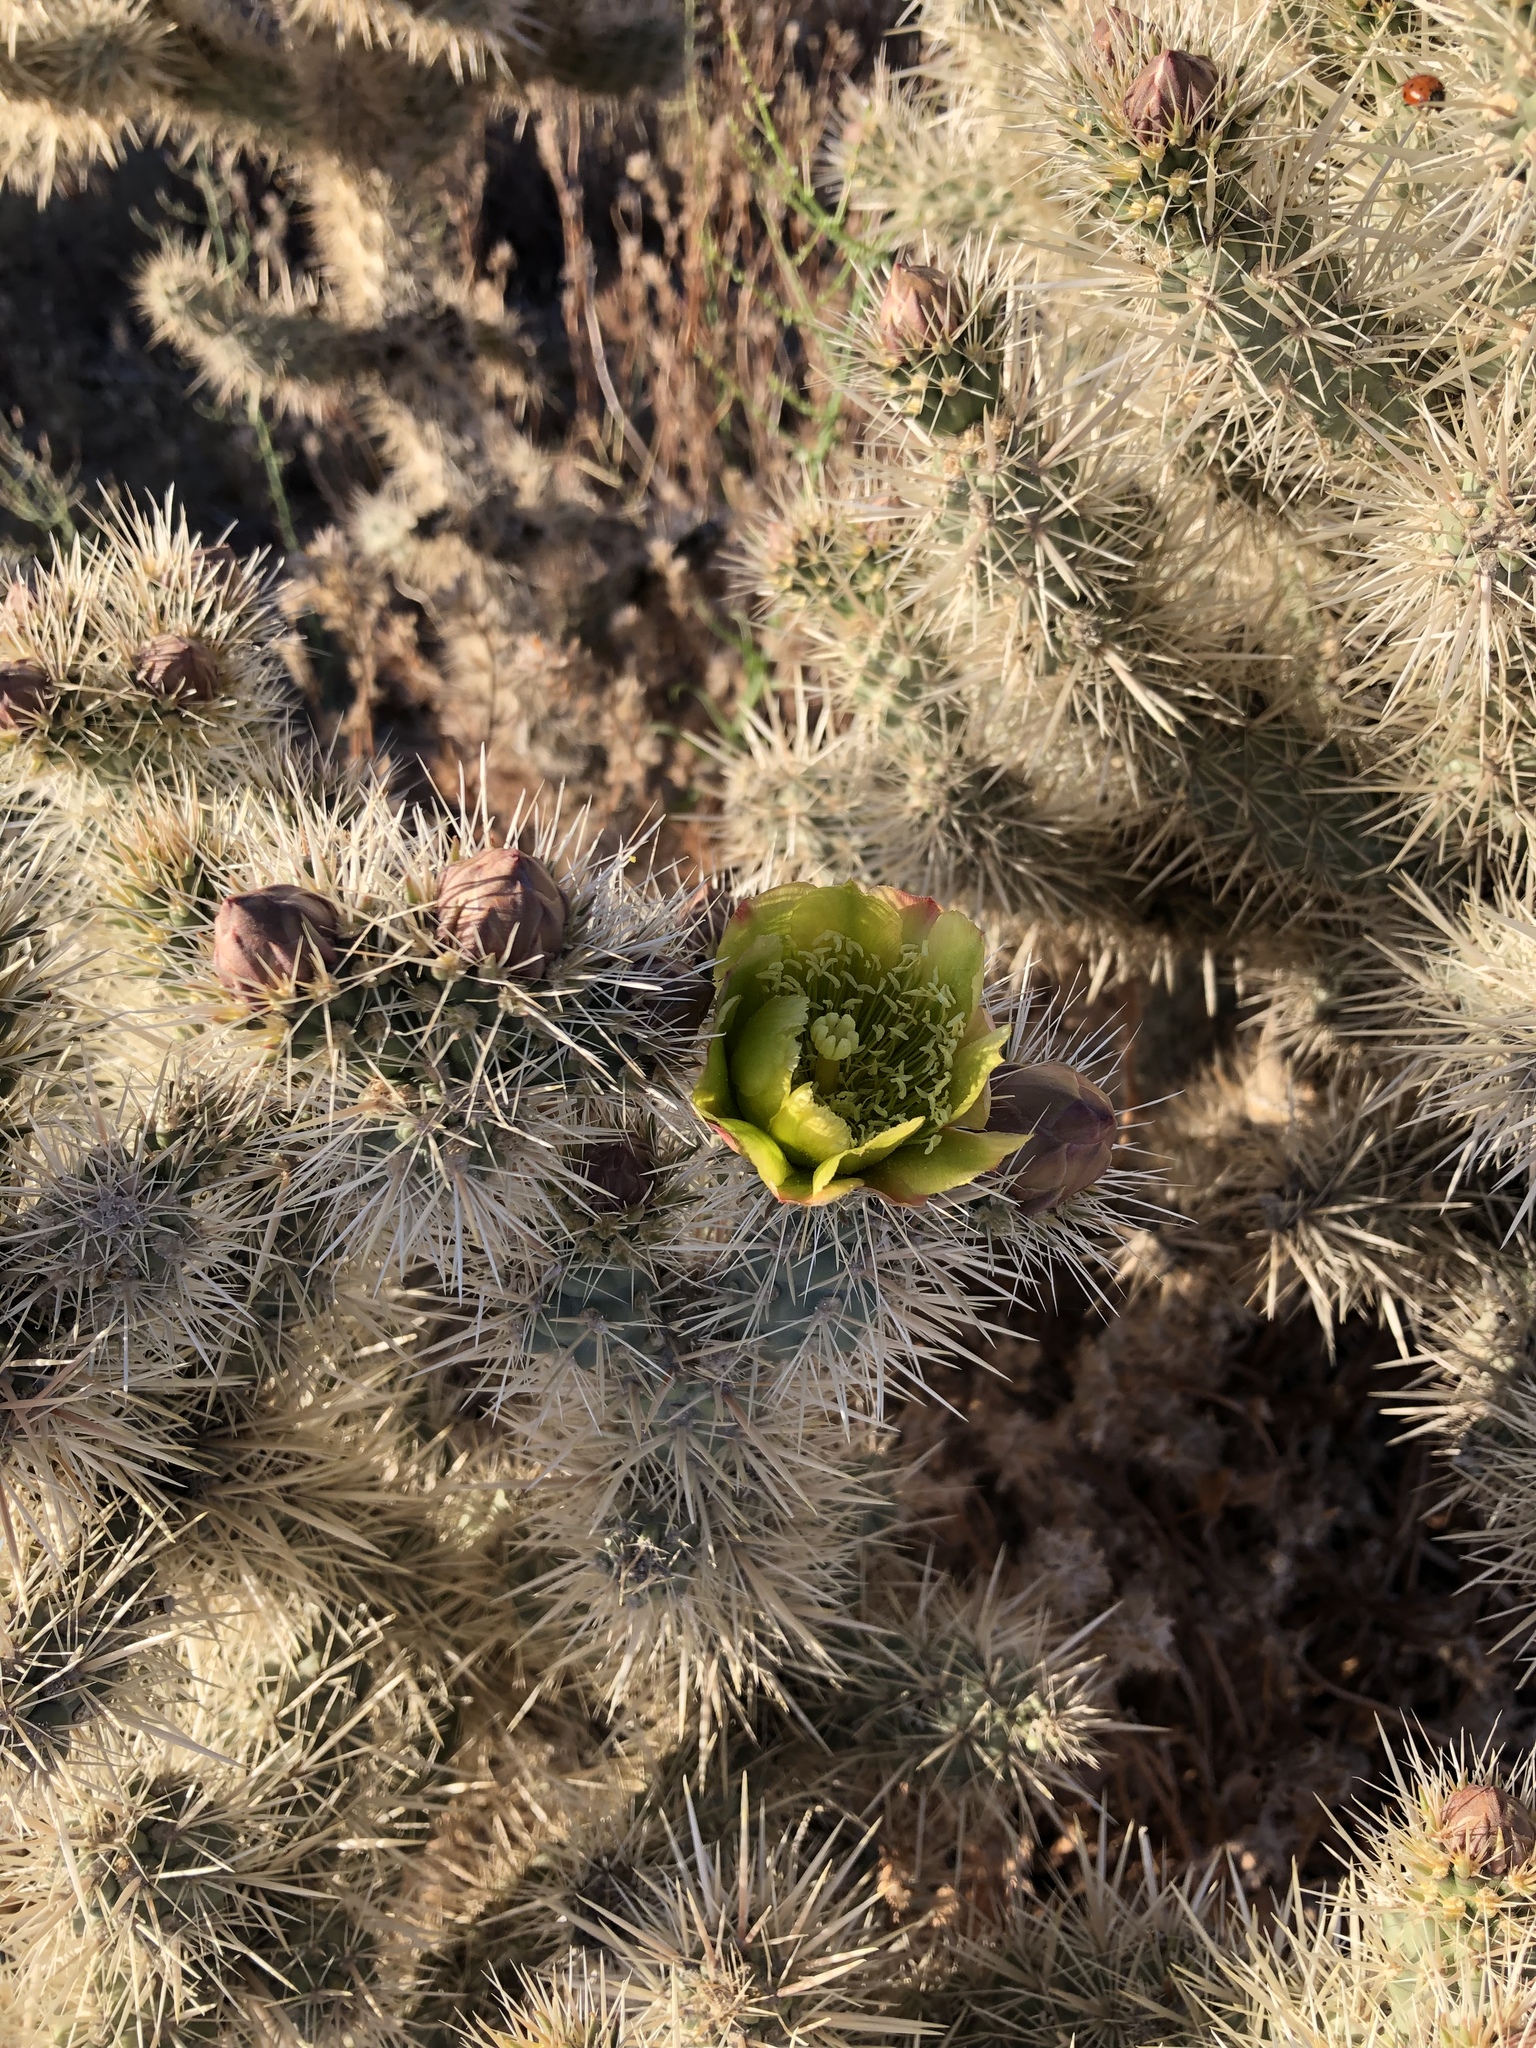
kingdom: Plantae
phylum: Tracheophyta
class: Magnoliopsida
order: Caryophyllales
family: Cactaceae
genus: Cylindropuntia
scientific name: Cylindropuntia echinocarpa
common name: Ground cholla
